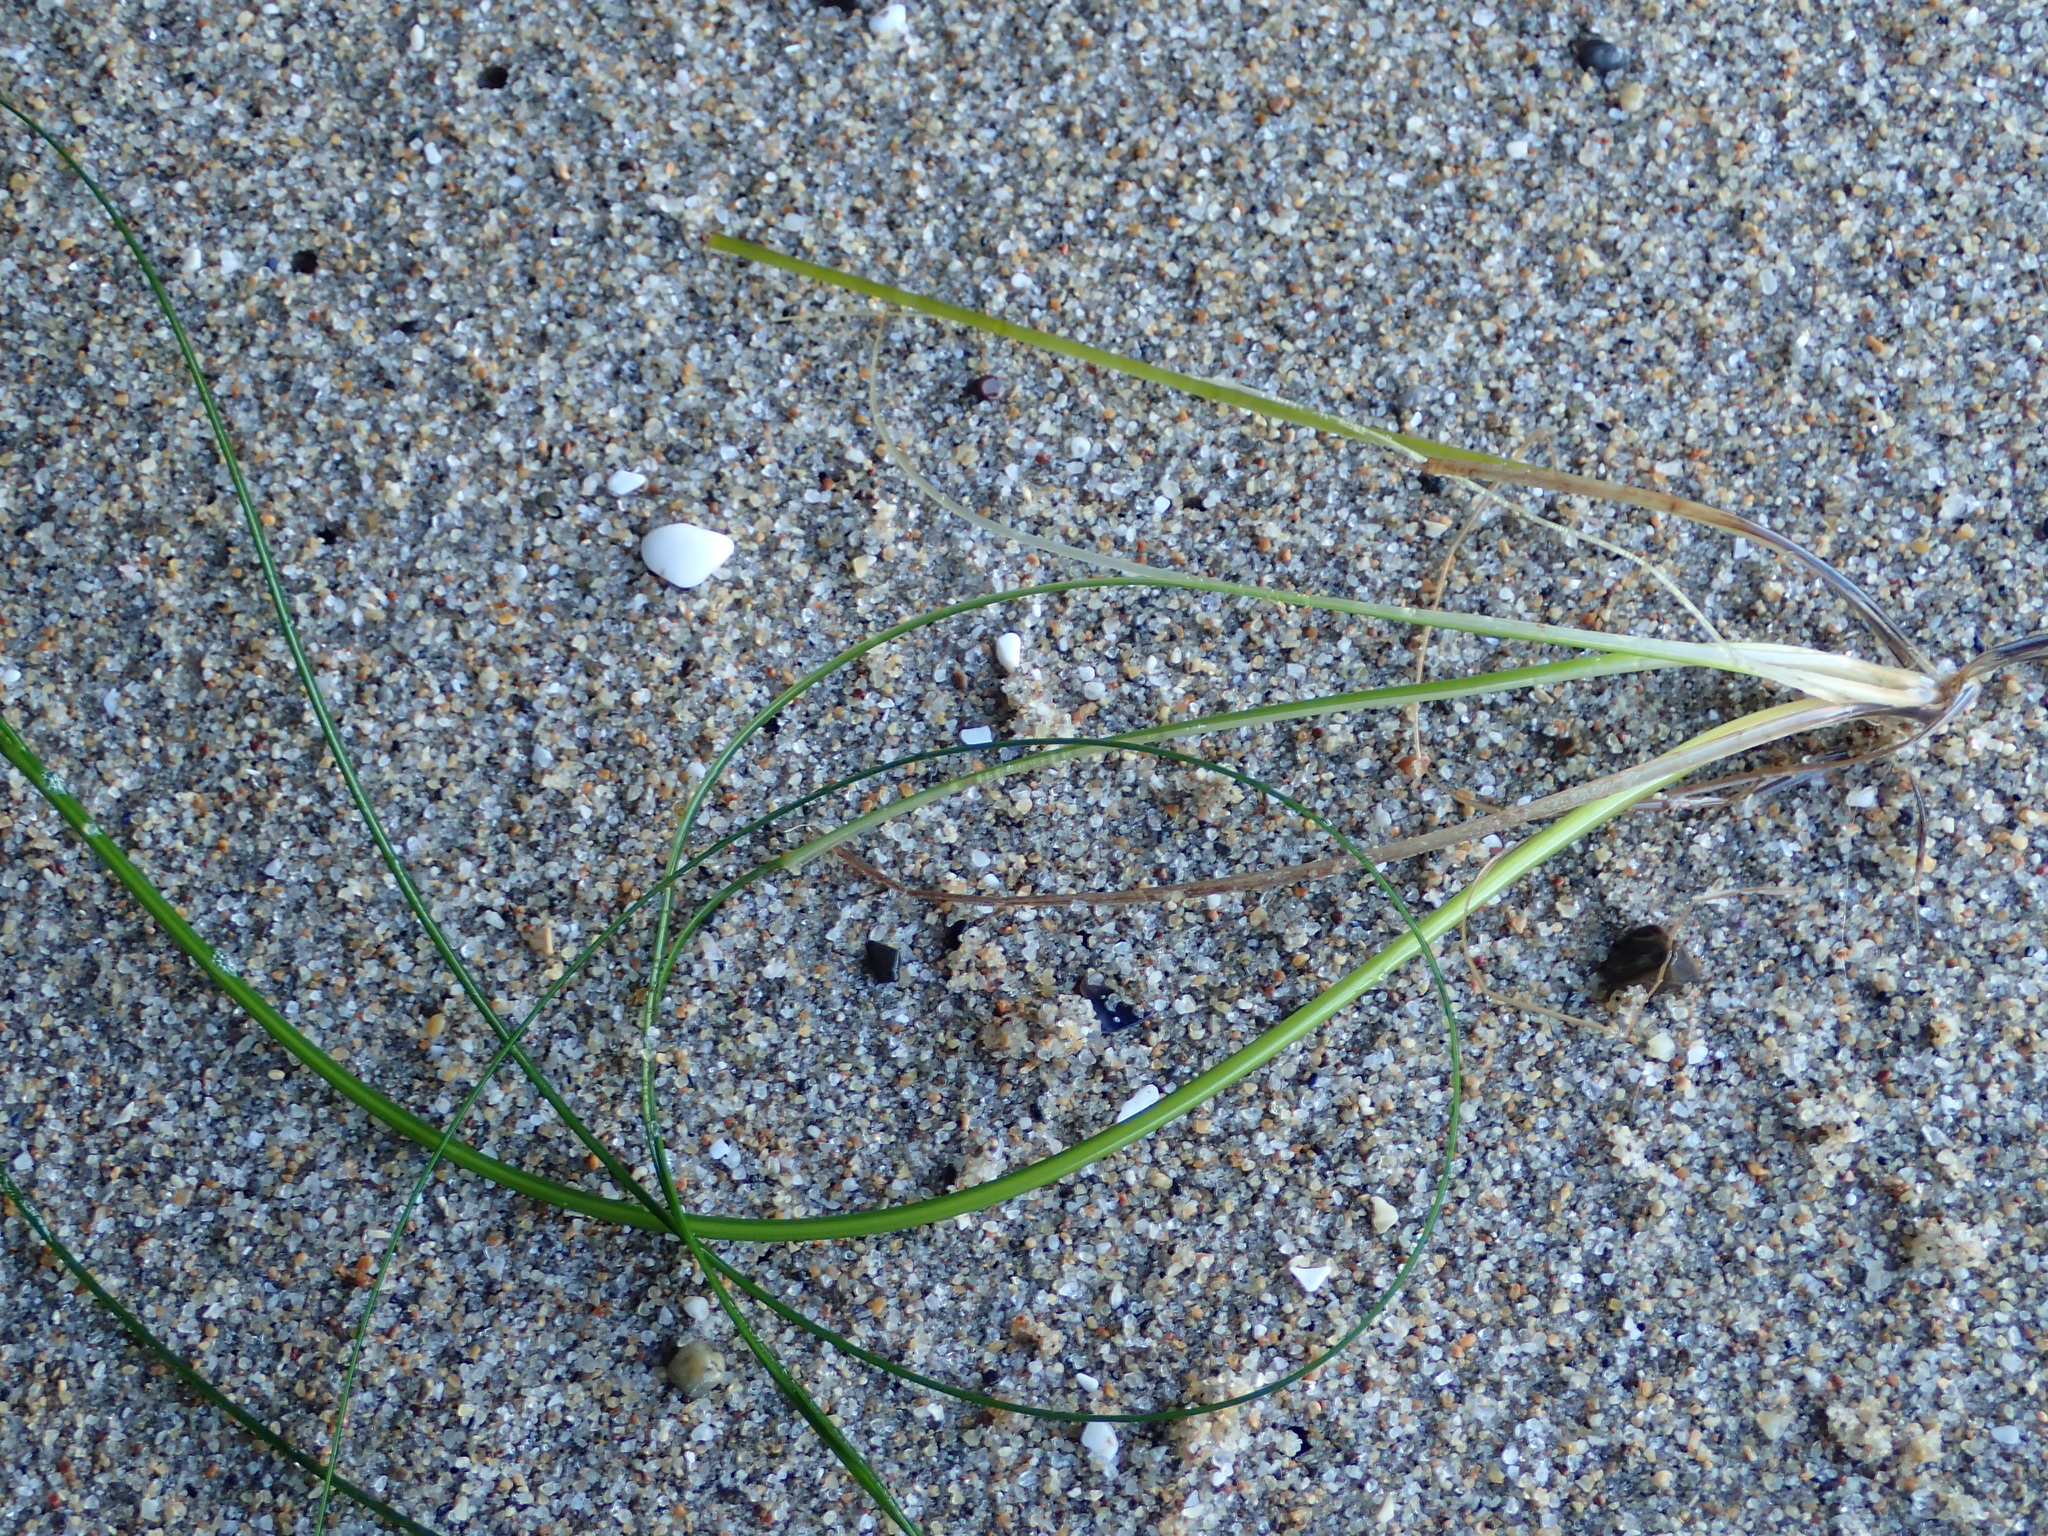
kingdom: Plantae
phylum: Tracheophyta
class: Liliopsida
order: Alismatales
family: Zosteraceae
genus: Phyllospadix
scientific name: Phyllospadix torreyi
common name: Surfgrass
